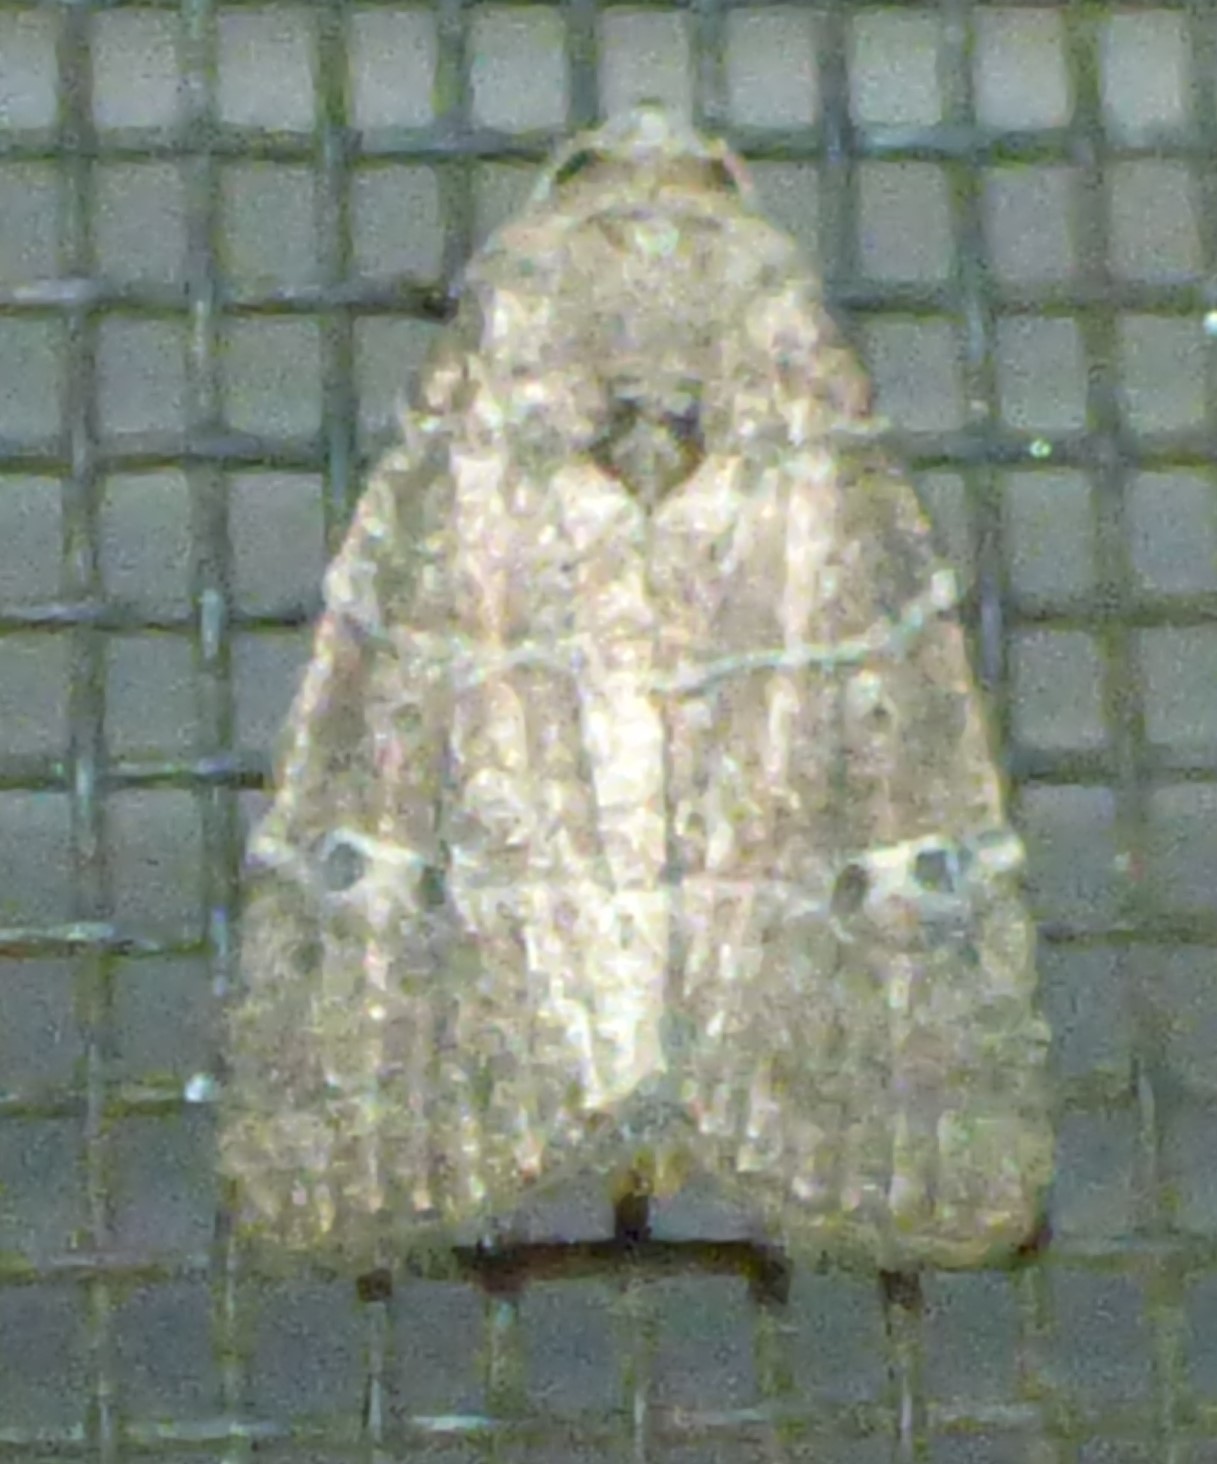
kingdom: Animalia
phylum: Arthropoda
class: Insecta
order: Lepidoptera
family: Noctuidae
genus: Elaphria
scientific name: Elaphria grata
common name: Grateful midget moth
